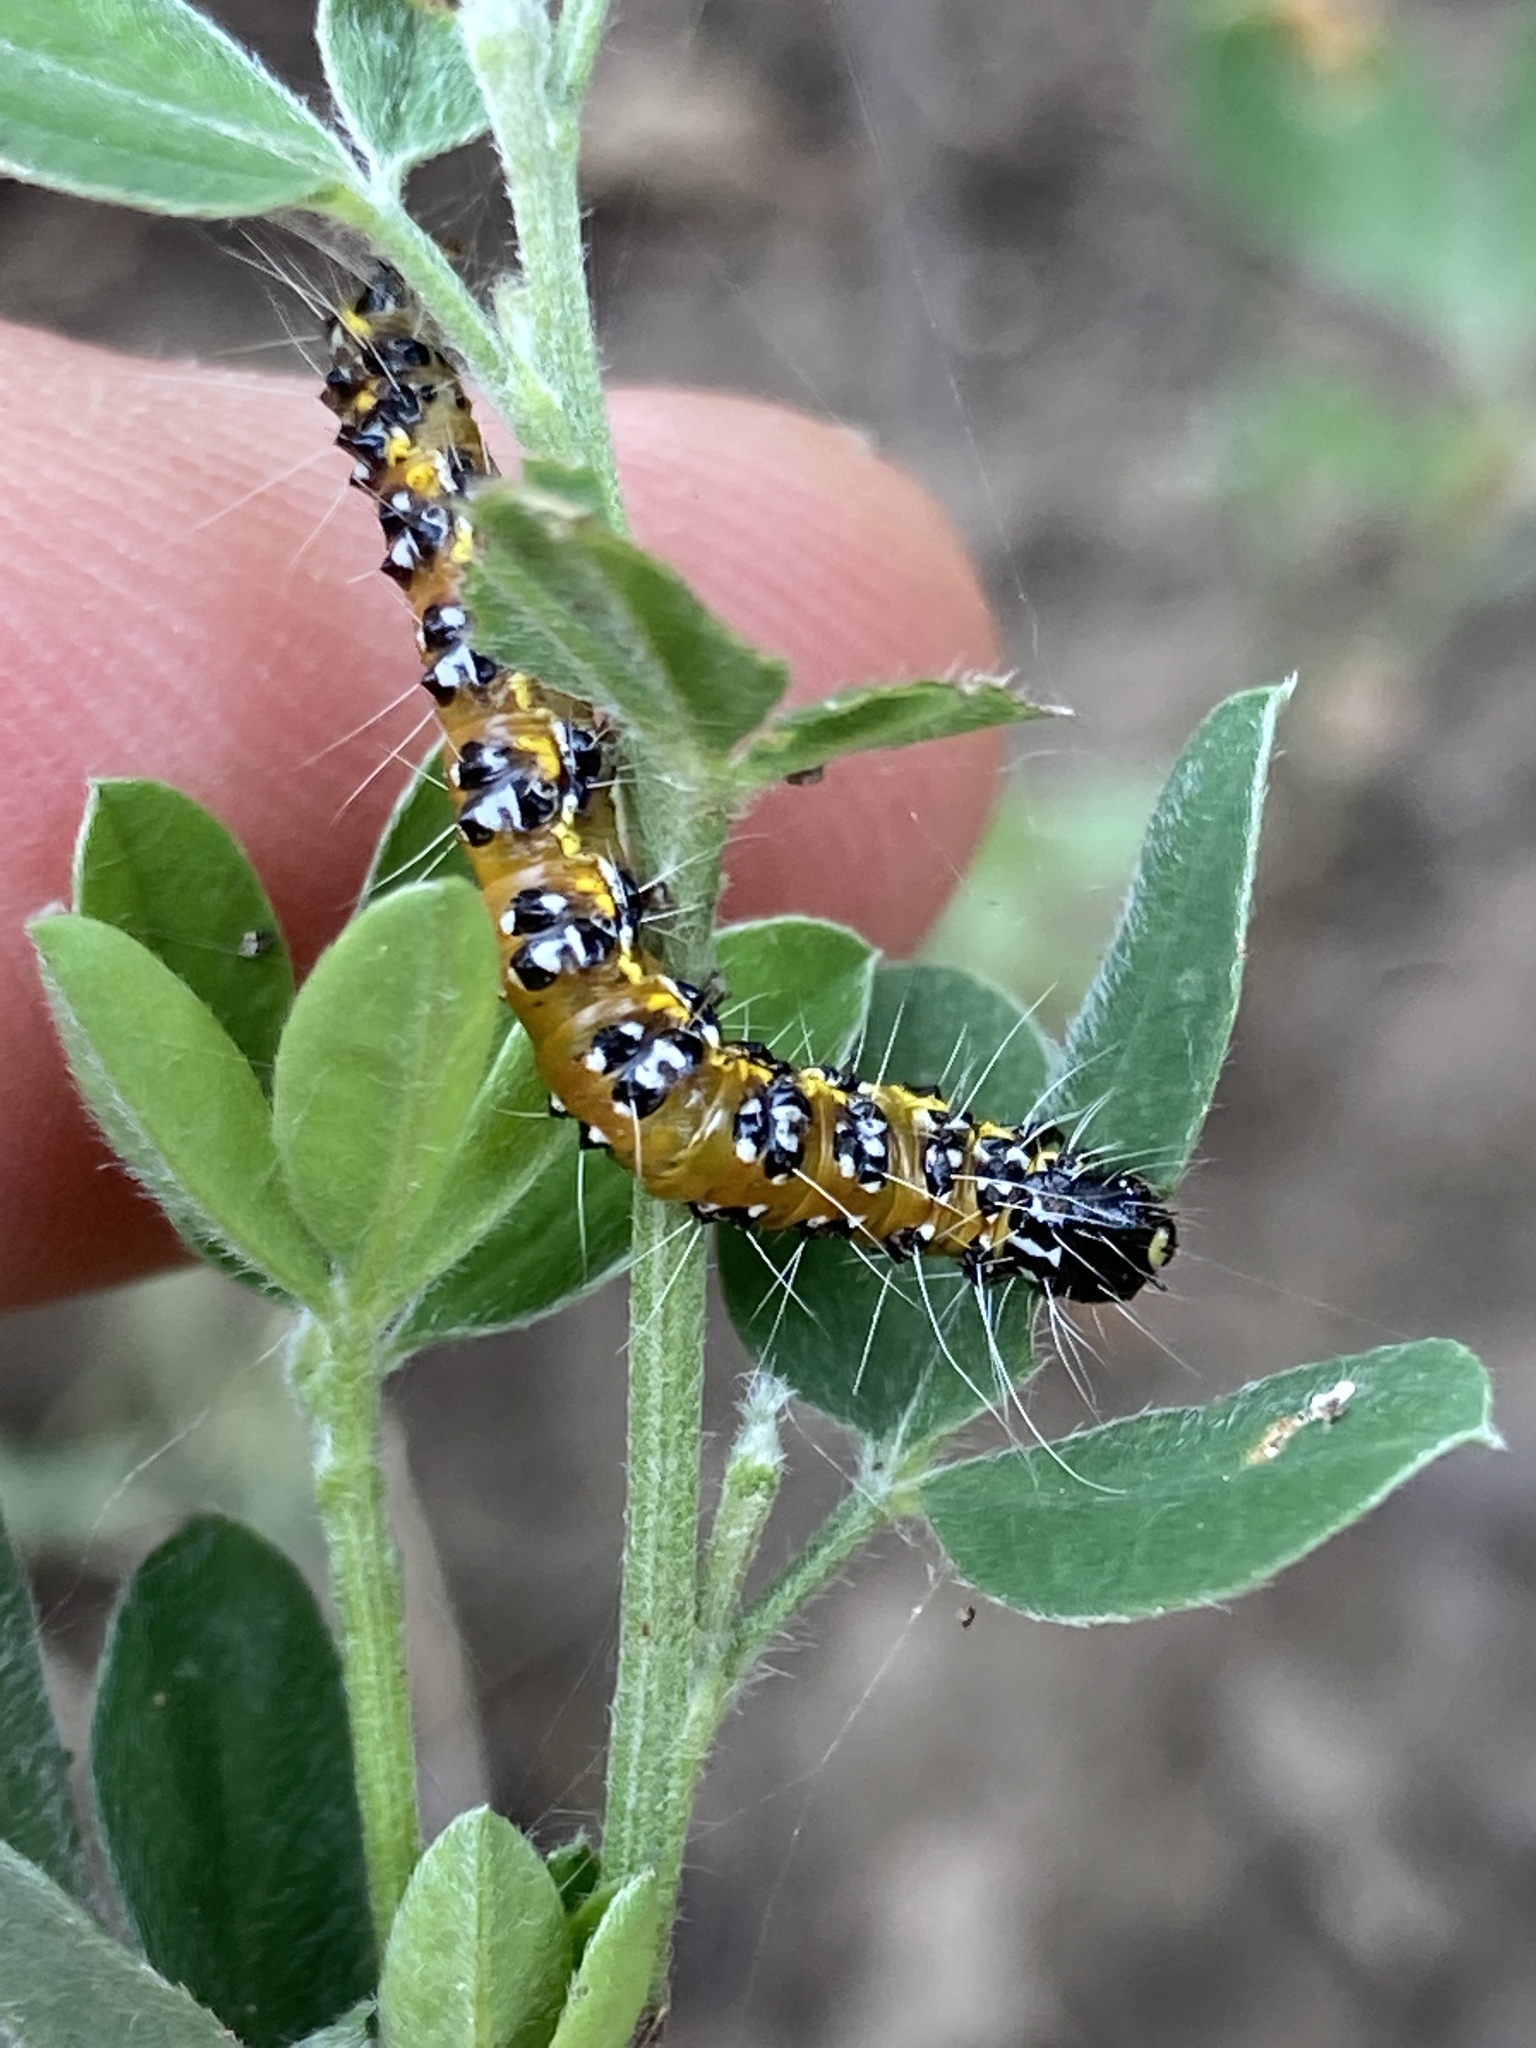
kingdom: Animalia
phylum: Arthropoda
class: Insecta
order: Lepidoptera
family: Crambidae
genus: Uresiphita
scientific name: Uresiphita reversalis
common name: Genista broom moth
